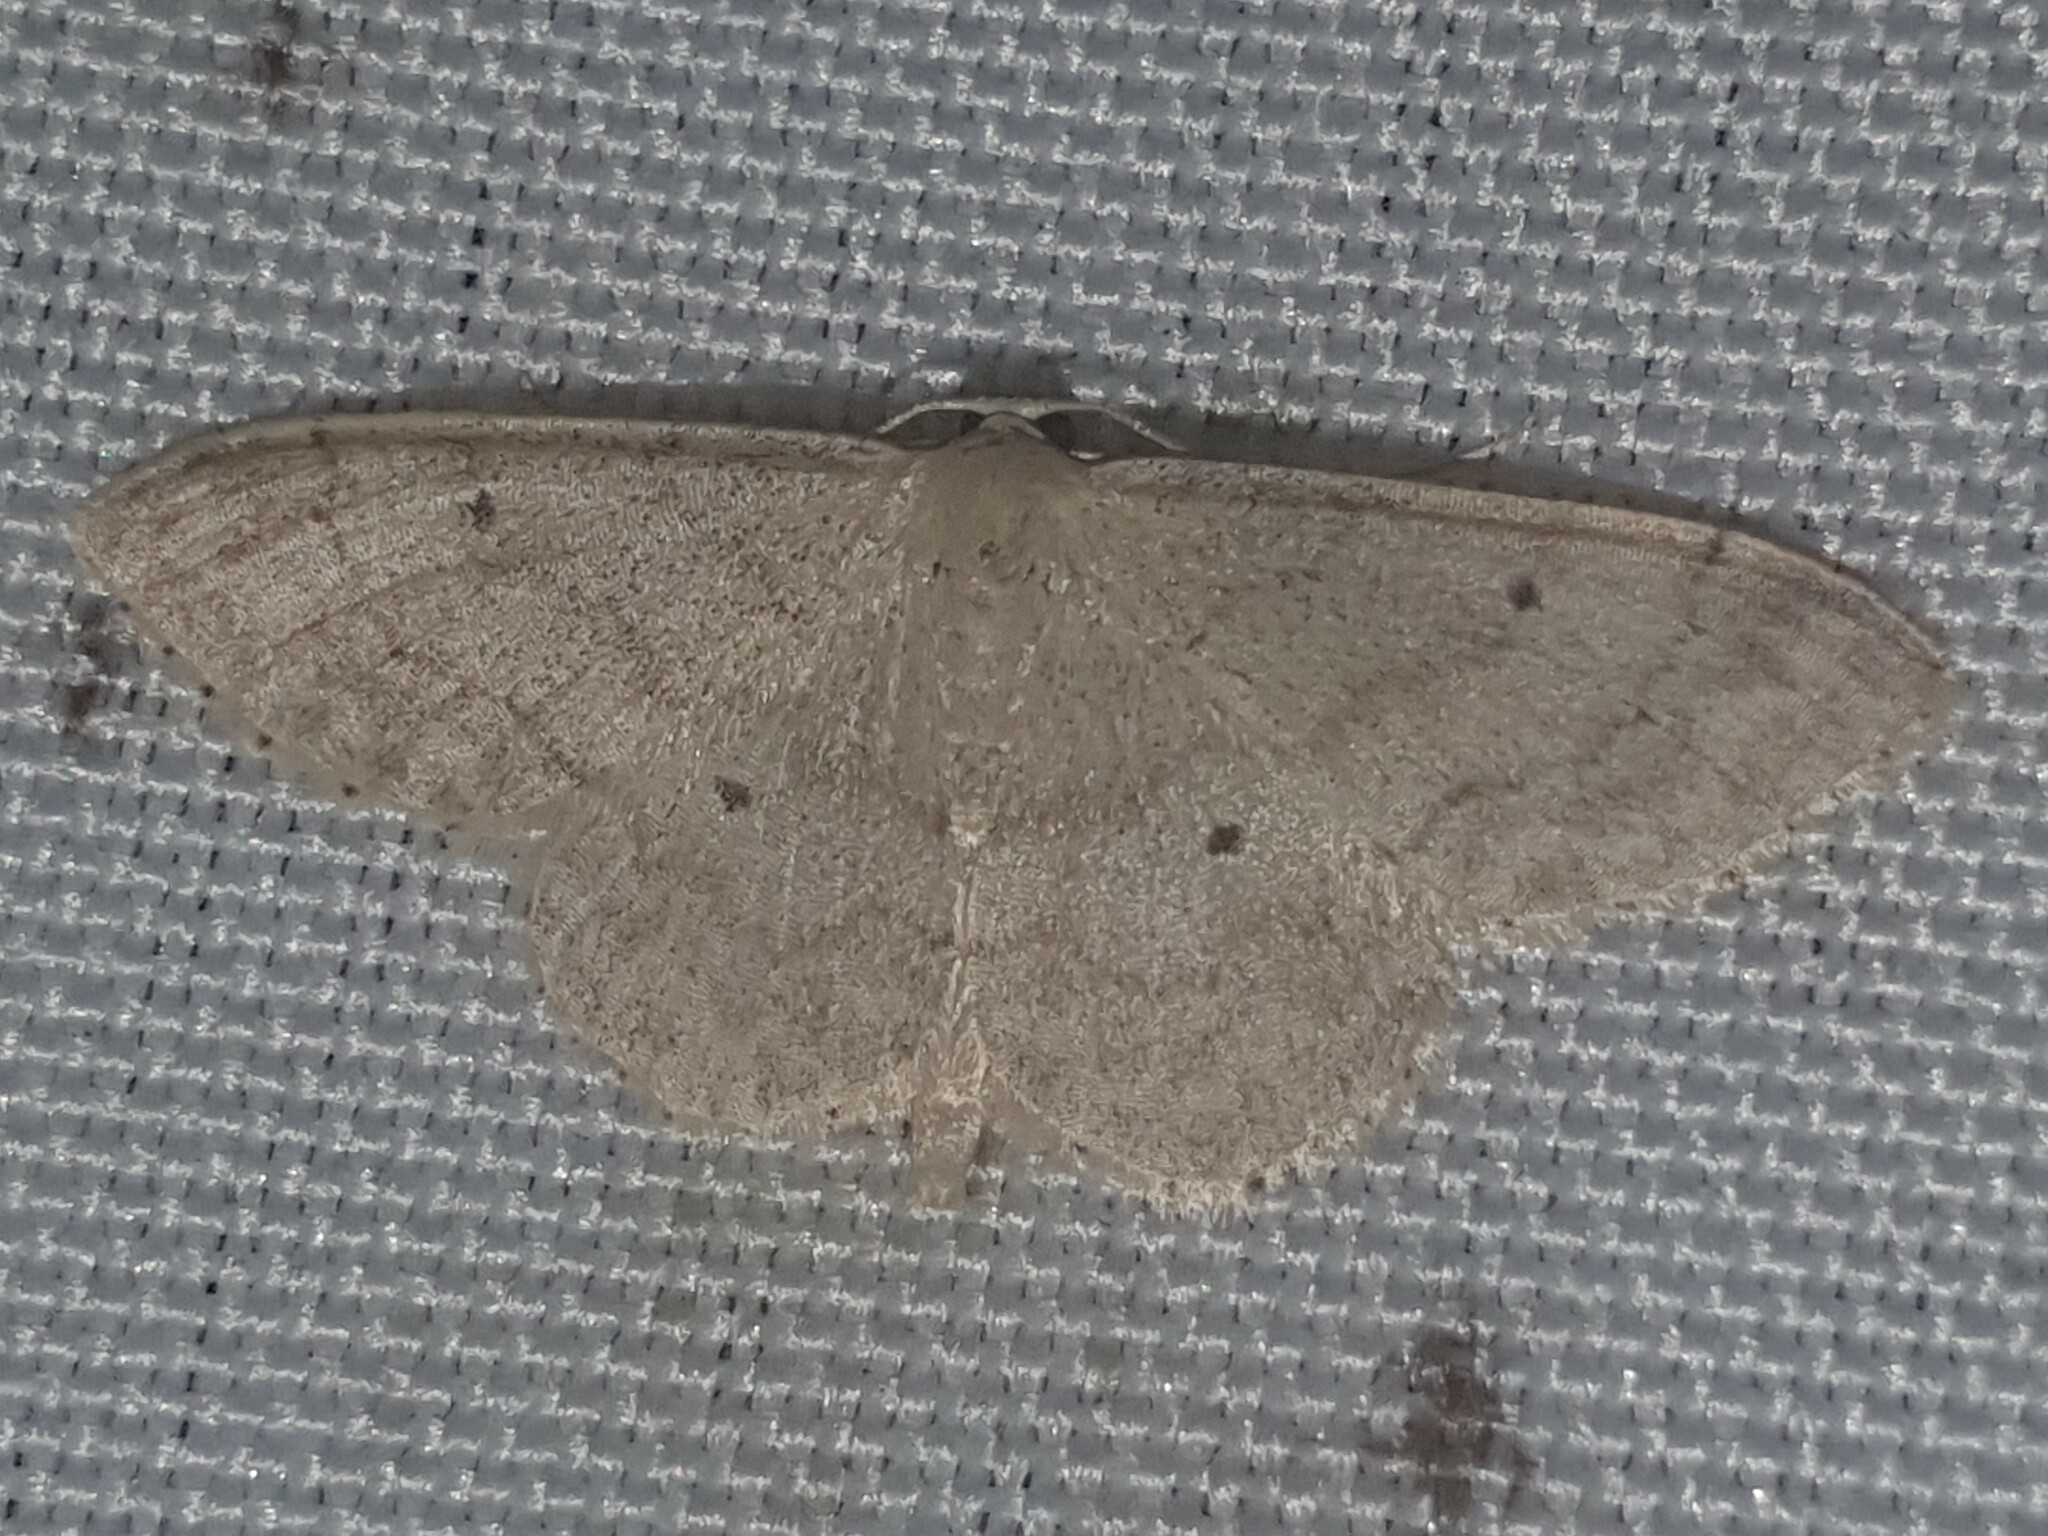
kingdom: Animalia
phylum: Arthropoda
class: Insecta
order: Lepidoptera
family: Geometridae
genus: Idaea
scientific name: Idaea biselata
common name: Small fan-footed wave
